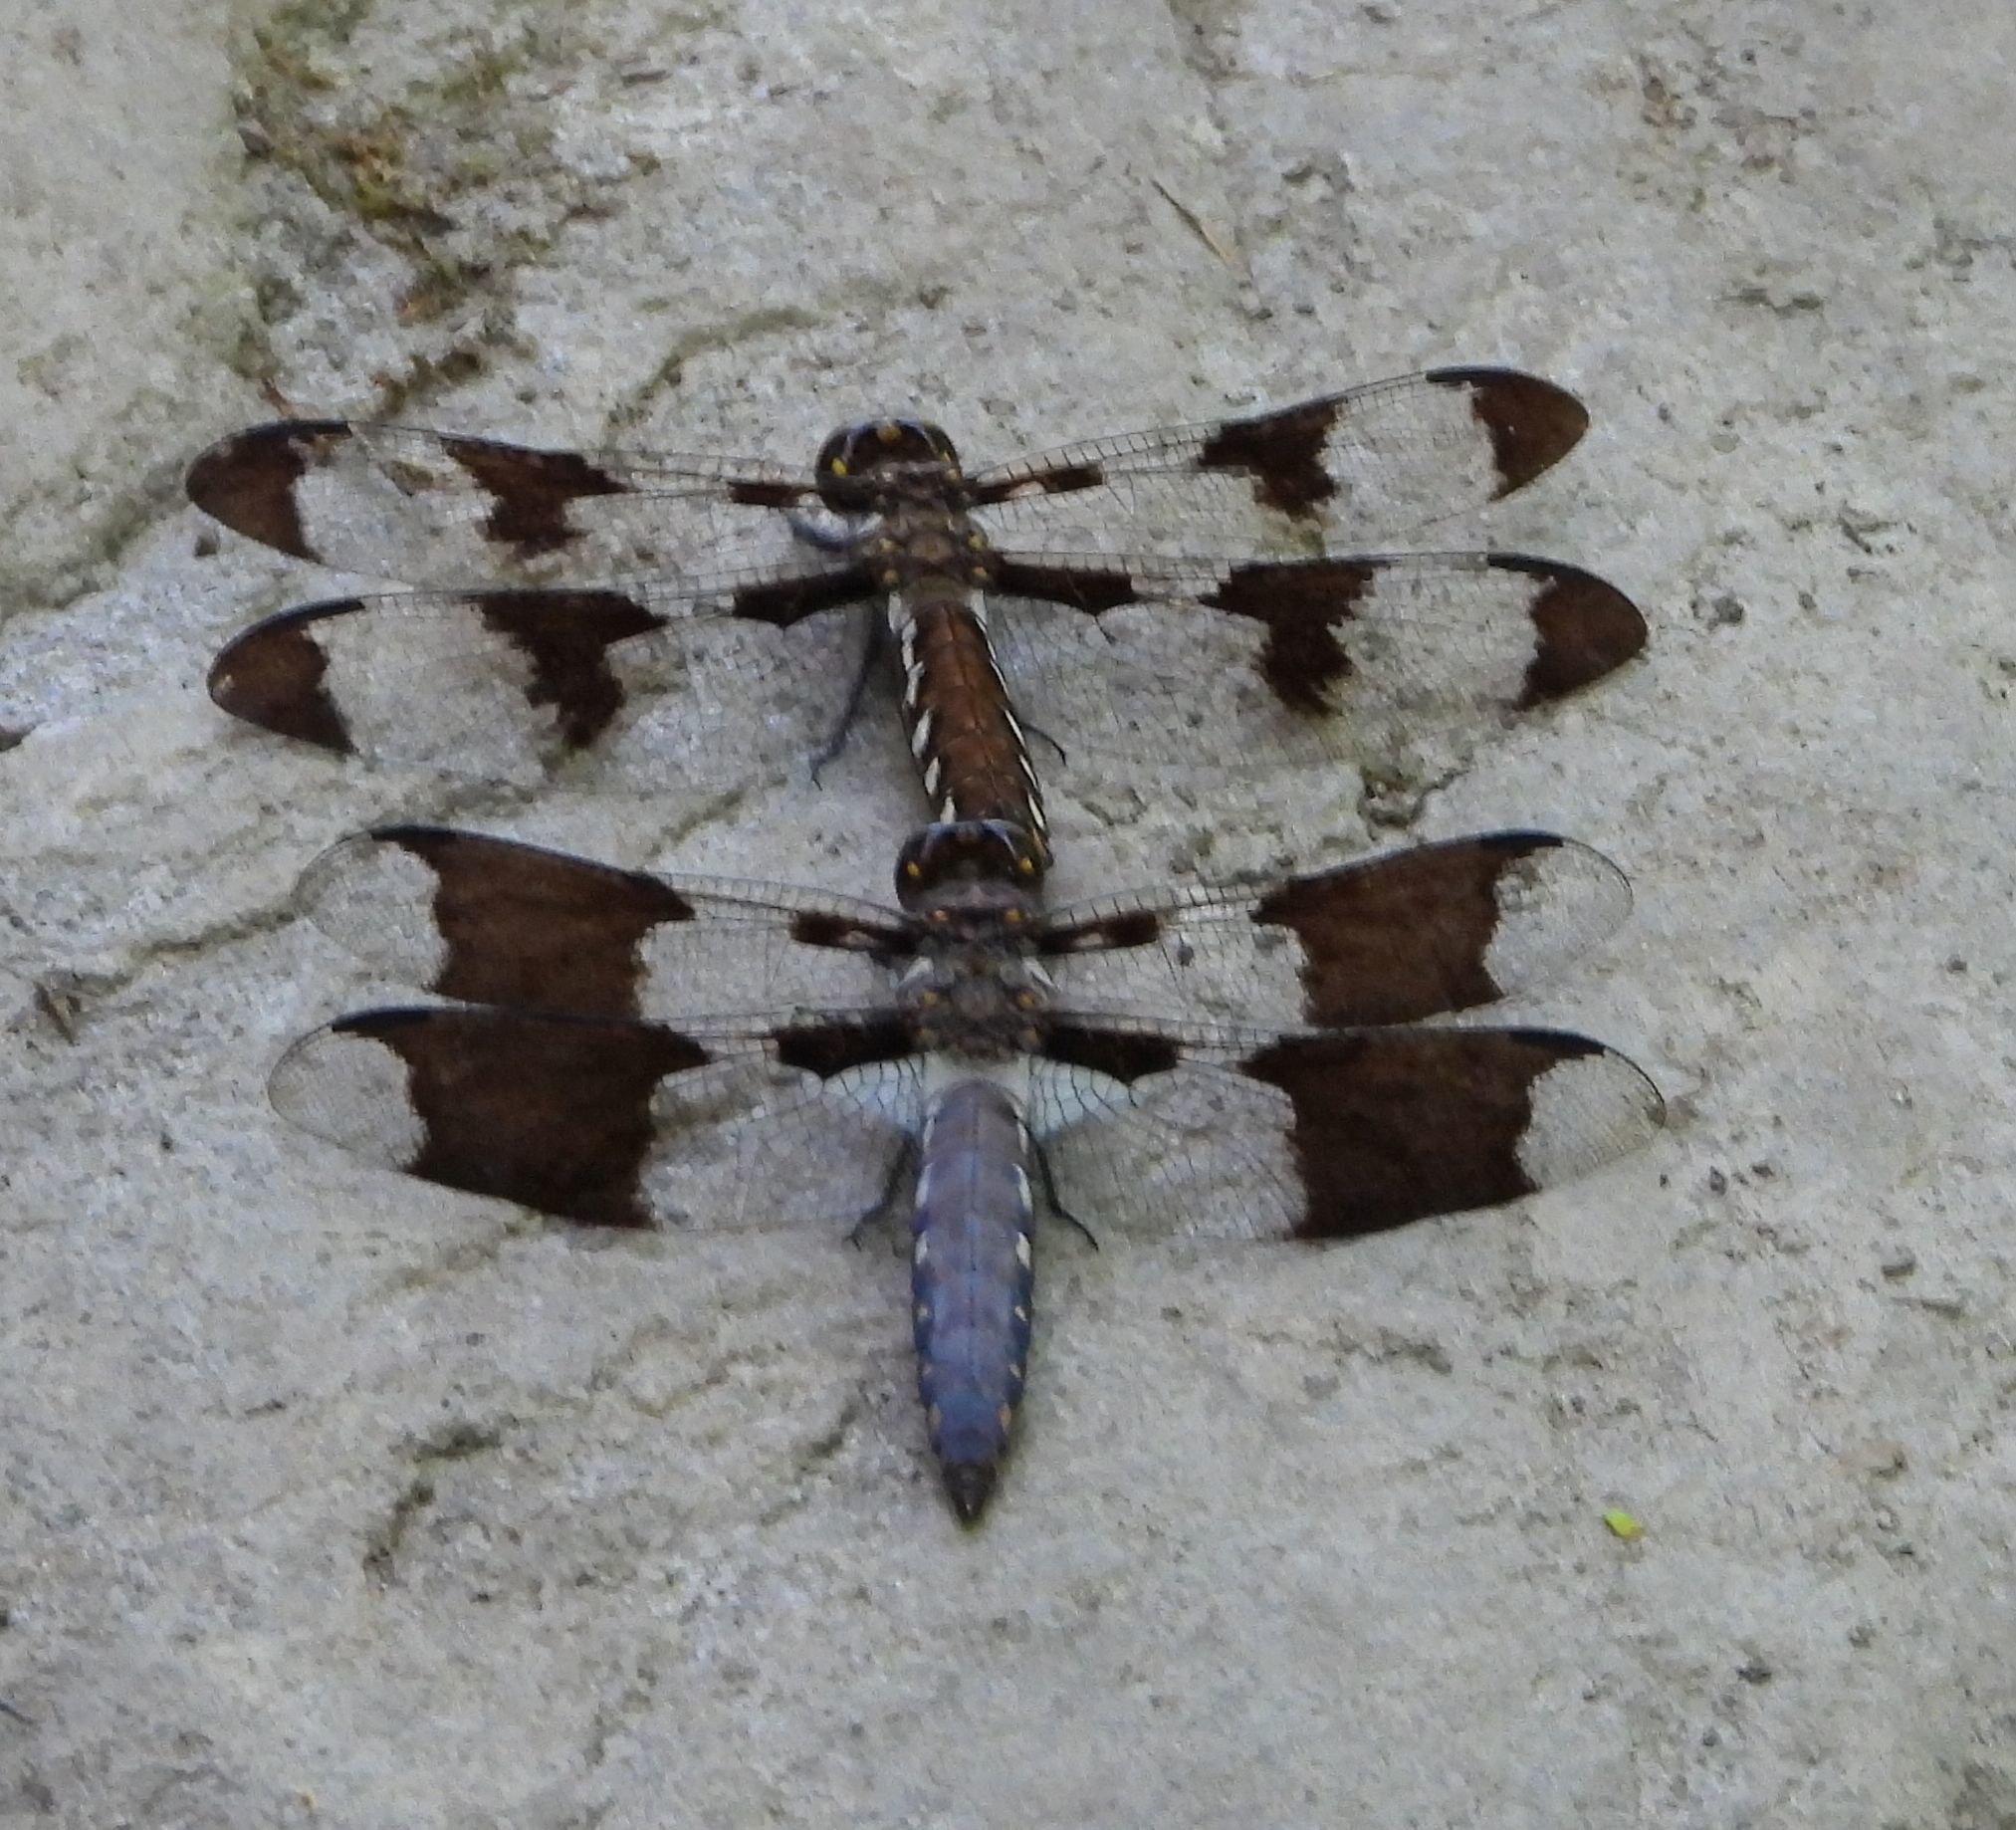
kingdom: Animalia
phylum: Arthropoda
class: Insecta
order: Odonata
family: Libellulidae
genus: Plathemis
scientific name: Plathemis lydia
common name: Common whitetail
